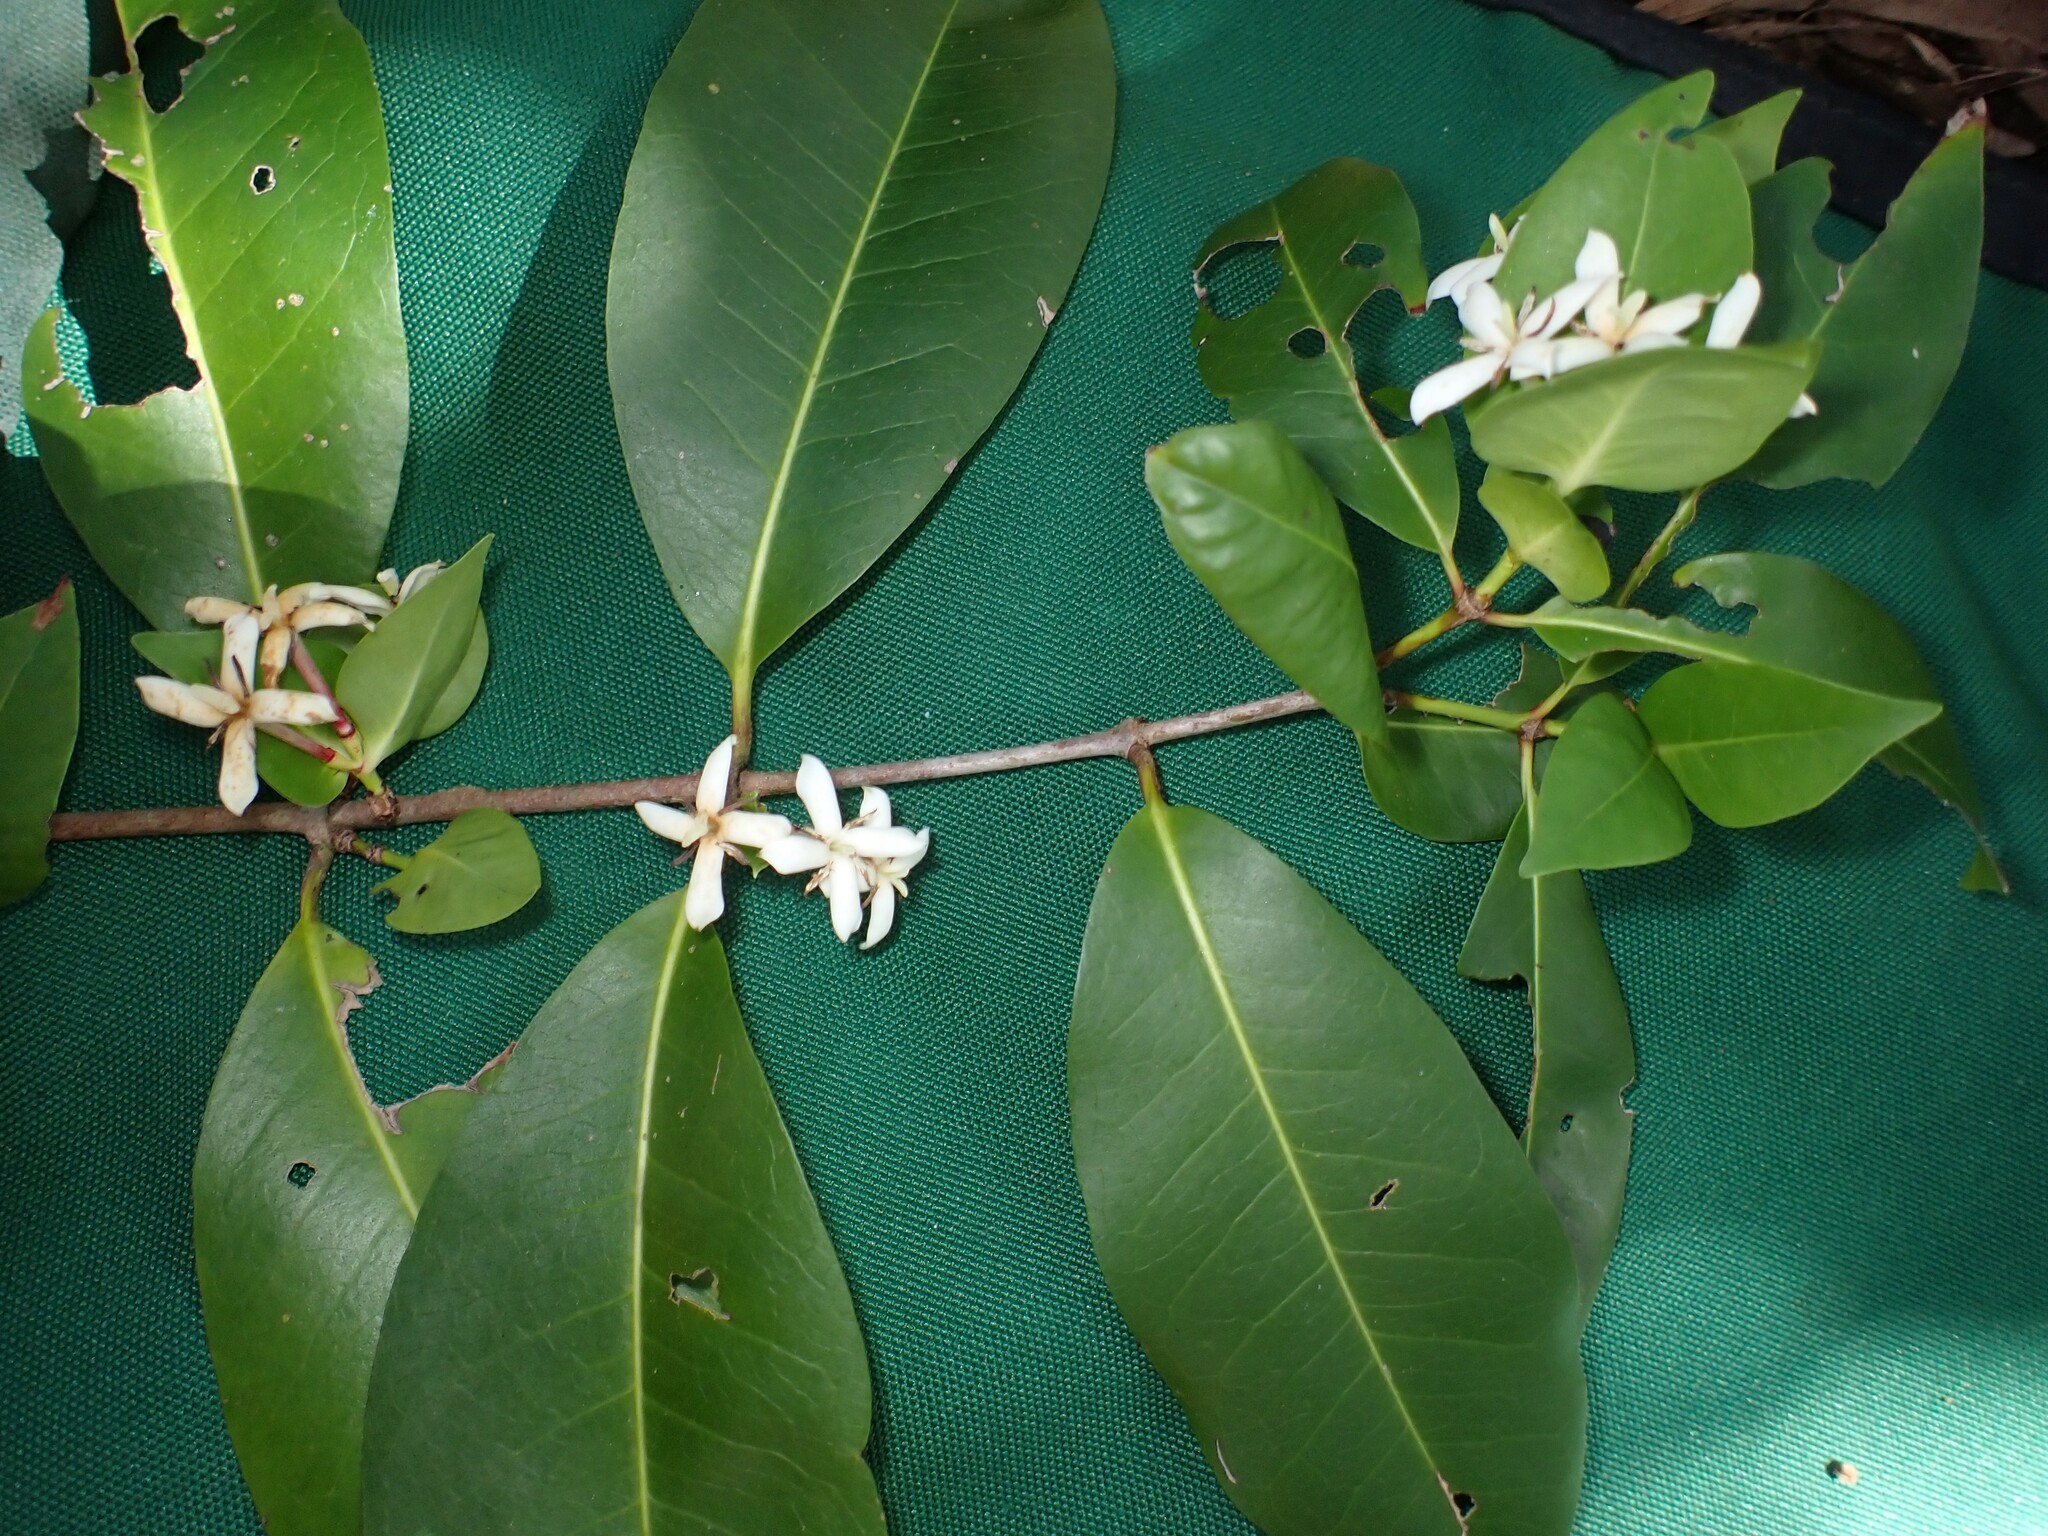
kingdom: Plantae
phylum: Tracheophyta
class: Magnoliopsida
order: Gentianales
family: Rubiaceae
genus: Ixora
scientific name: Ixora foetida
